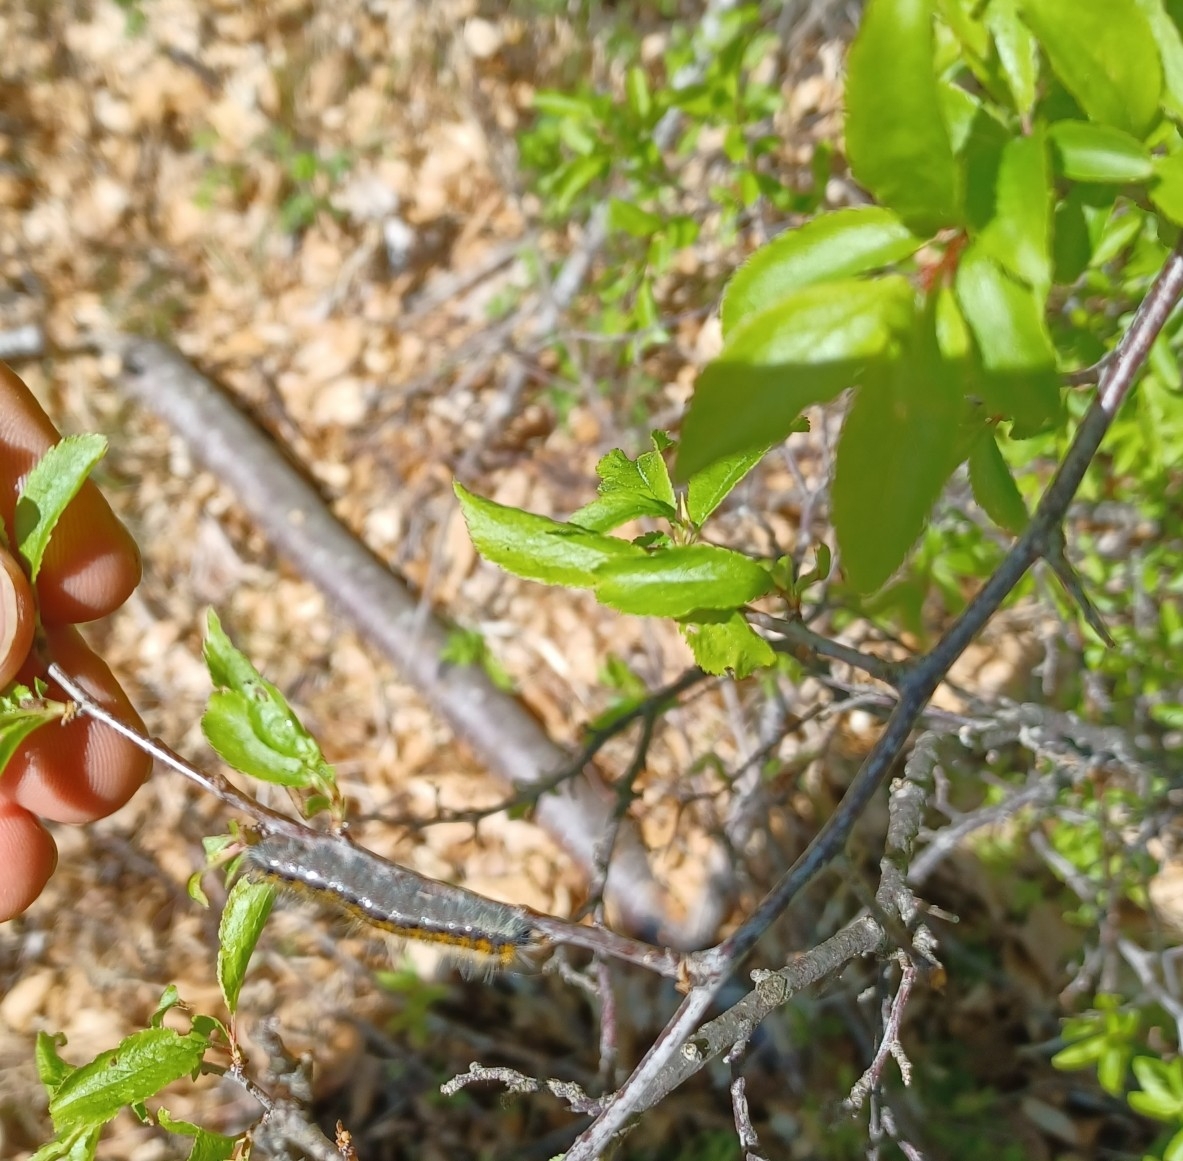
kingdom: Animalia
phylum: Arthropoda
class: Insecta
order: Lepidoptera
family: Pieridae
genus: Aporia
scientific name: Aporia crataegi
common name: Black-veined white
